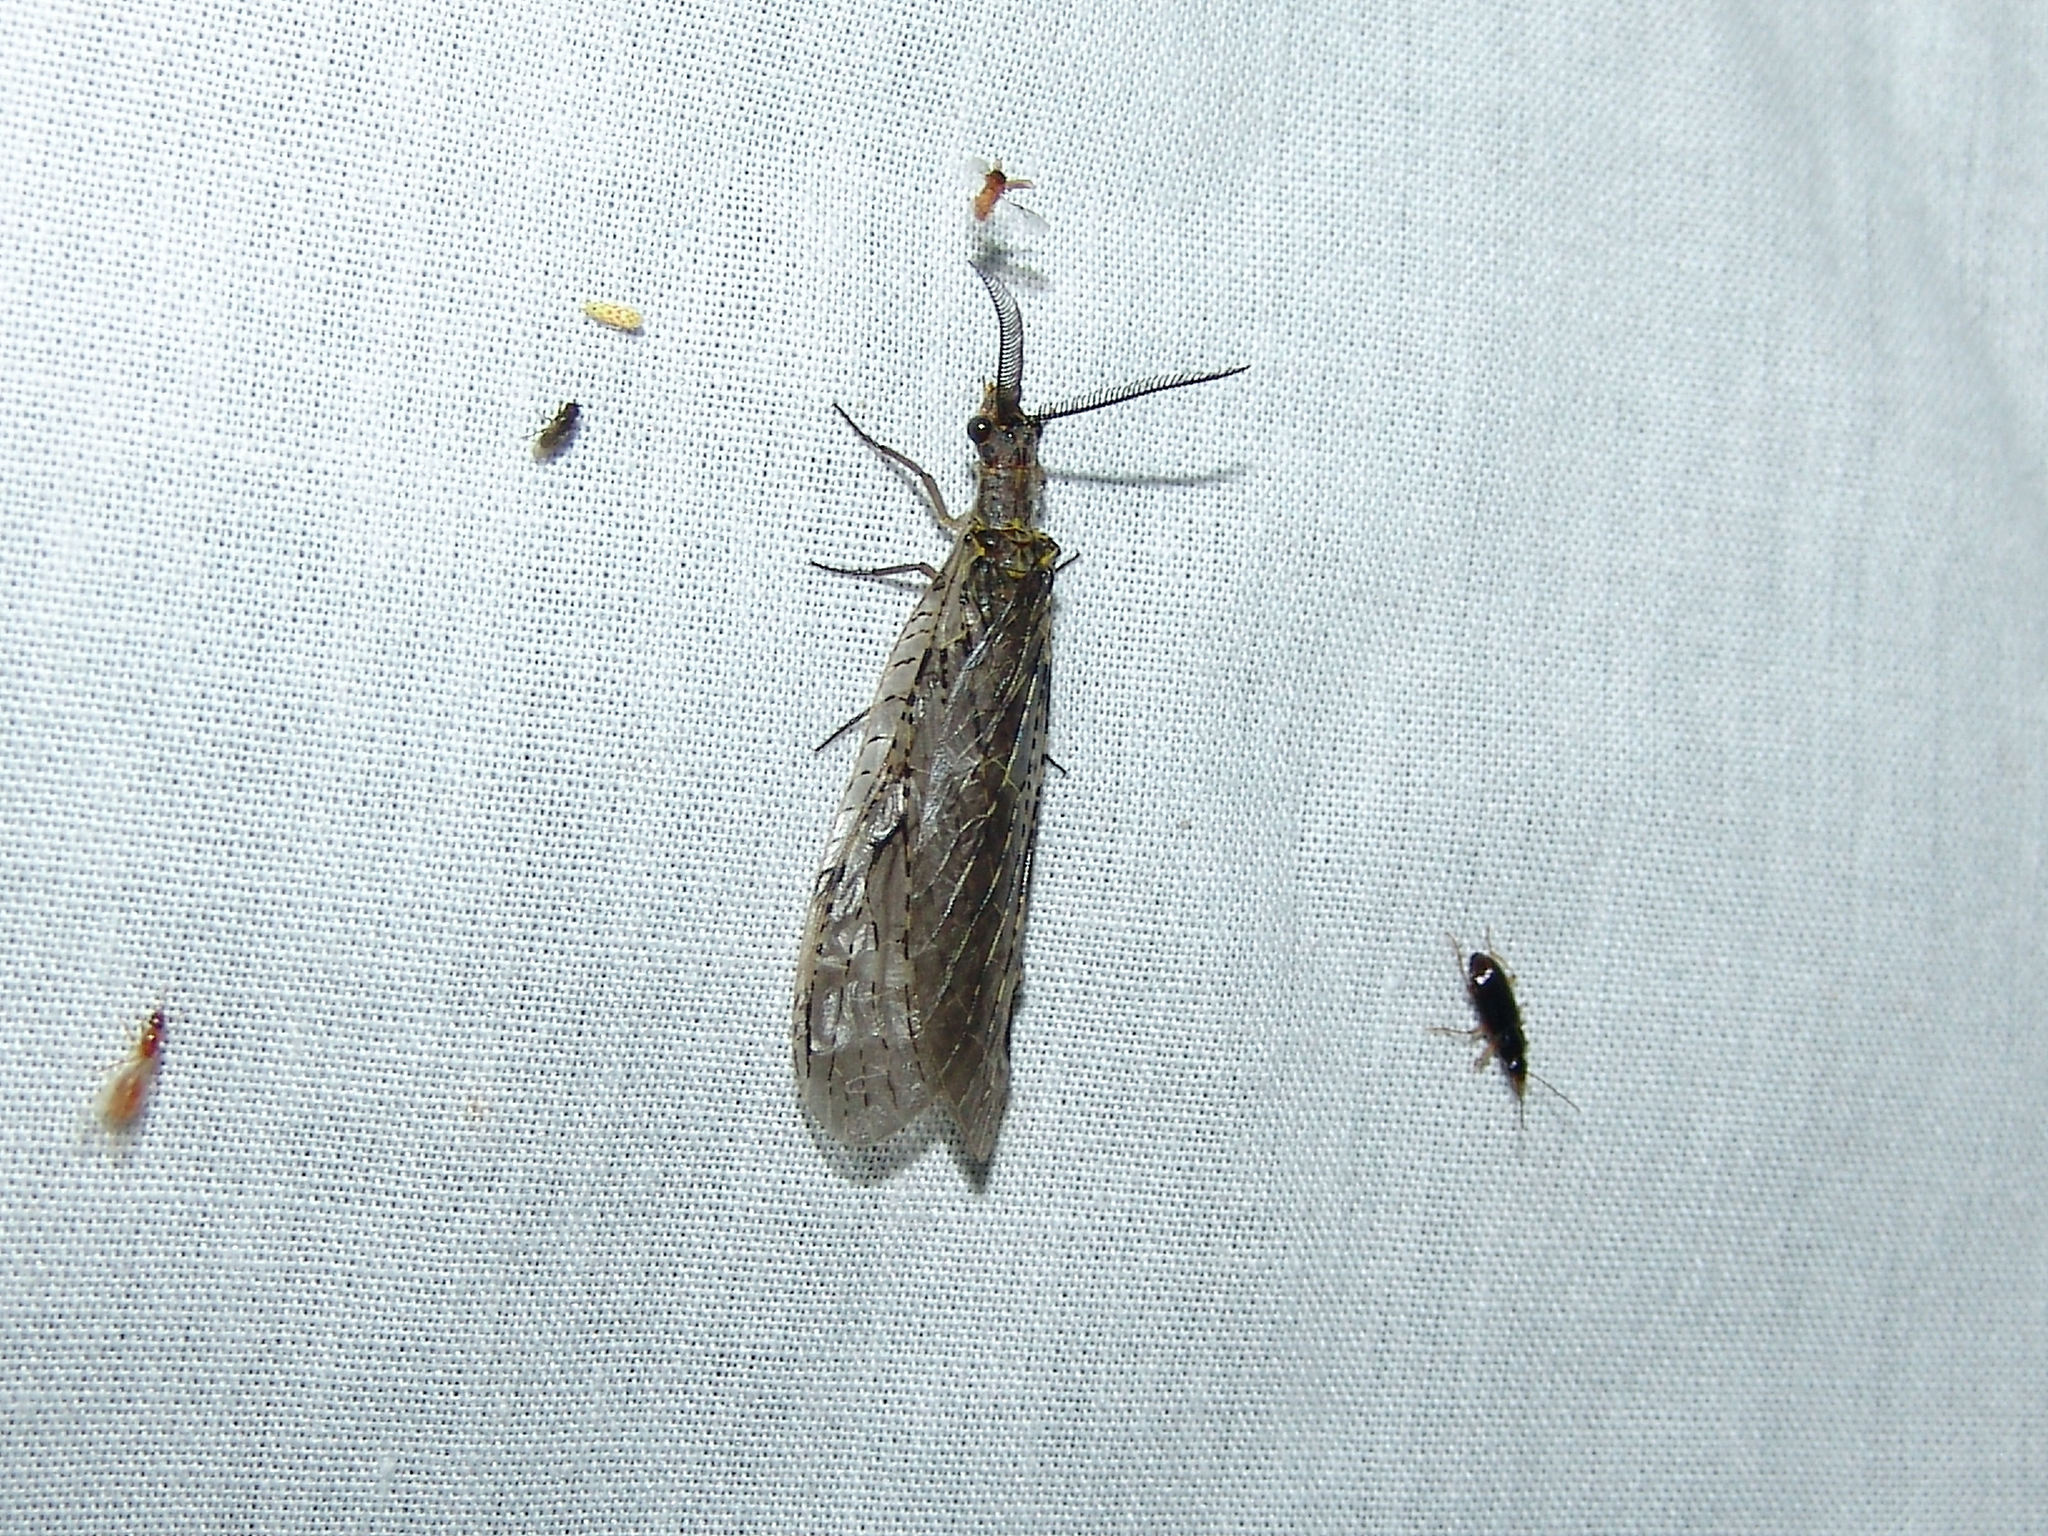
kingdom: Animalia
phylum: Arthropoda
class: Insecta
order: Megaloptera
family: Corydalidae
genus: Chauliodes
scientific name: Chauliodes rastricornis
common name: Spring fishfly
